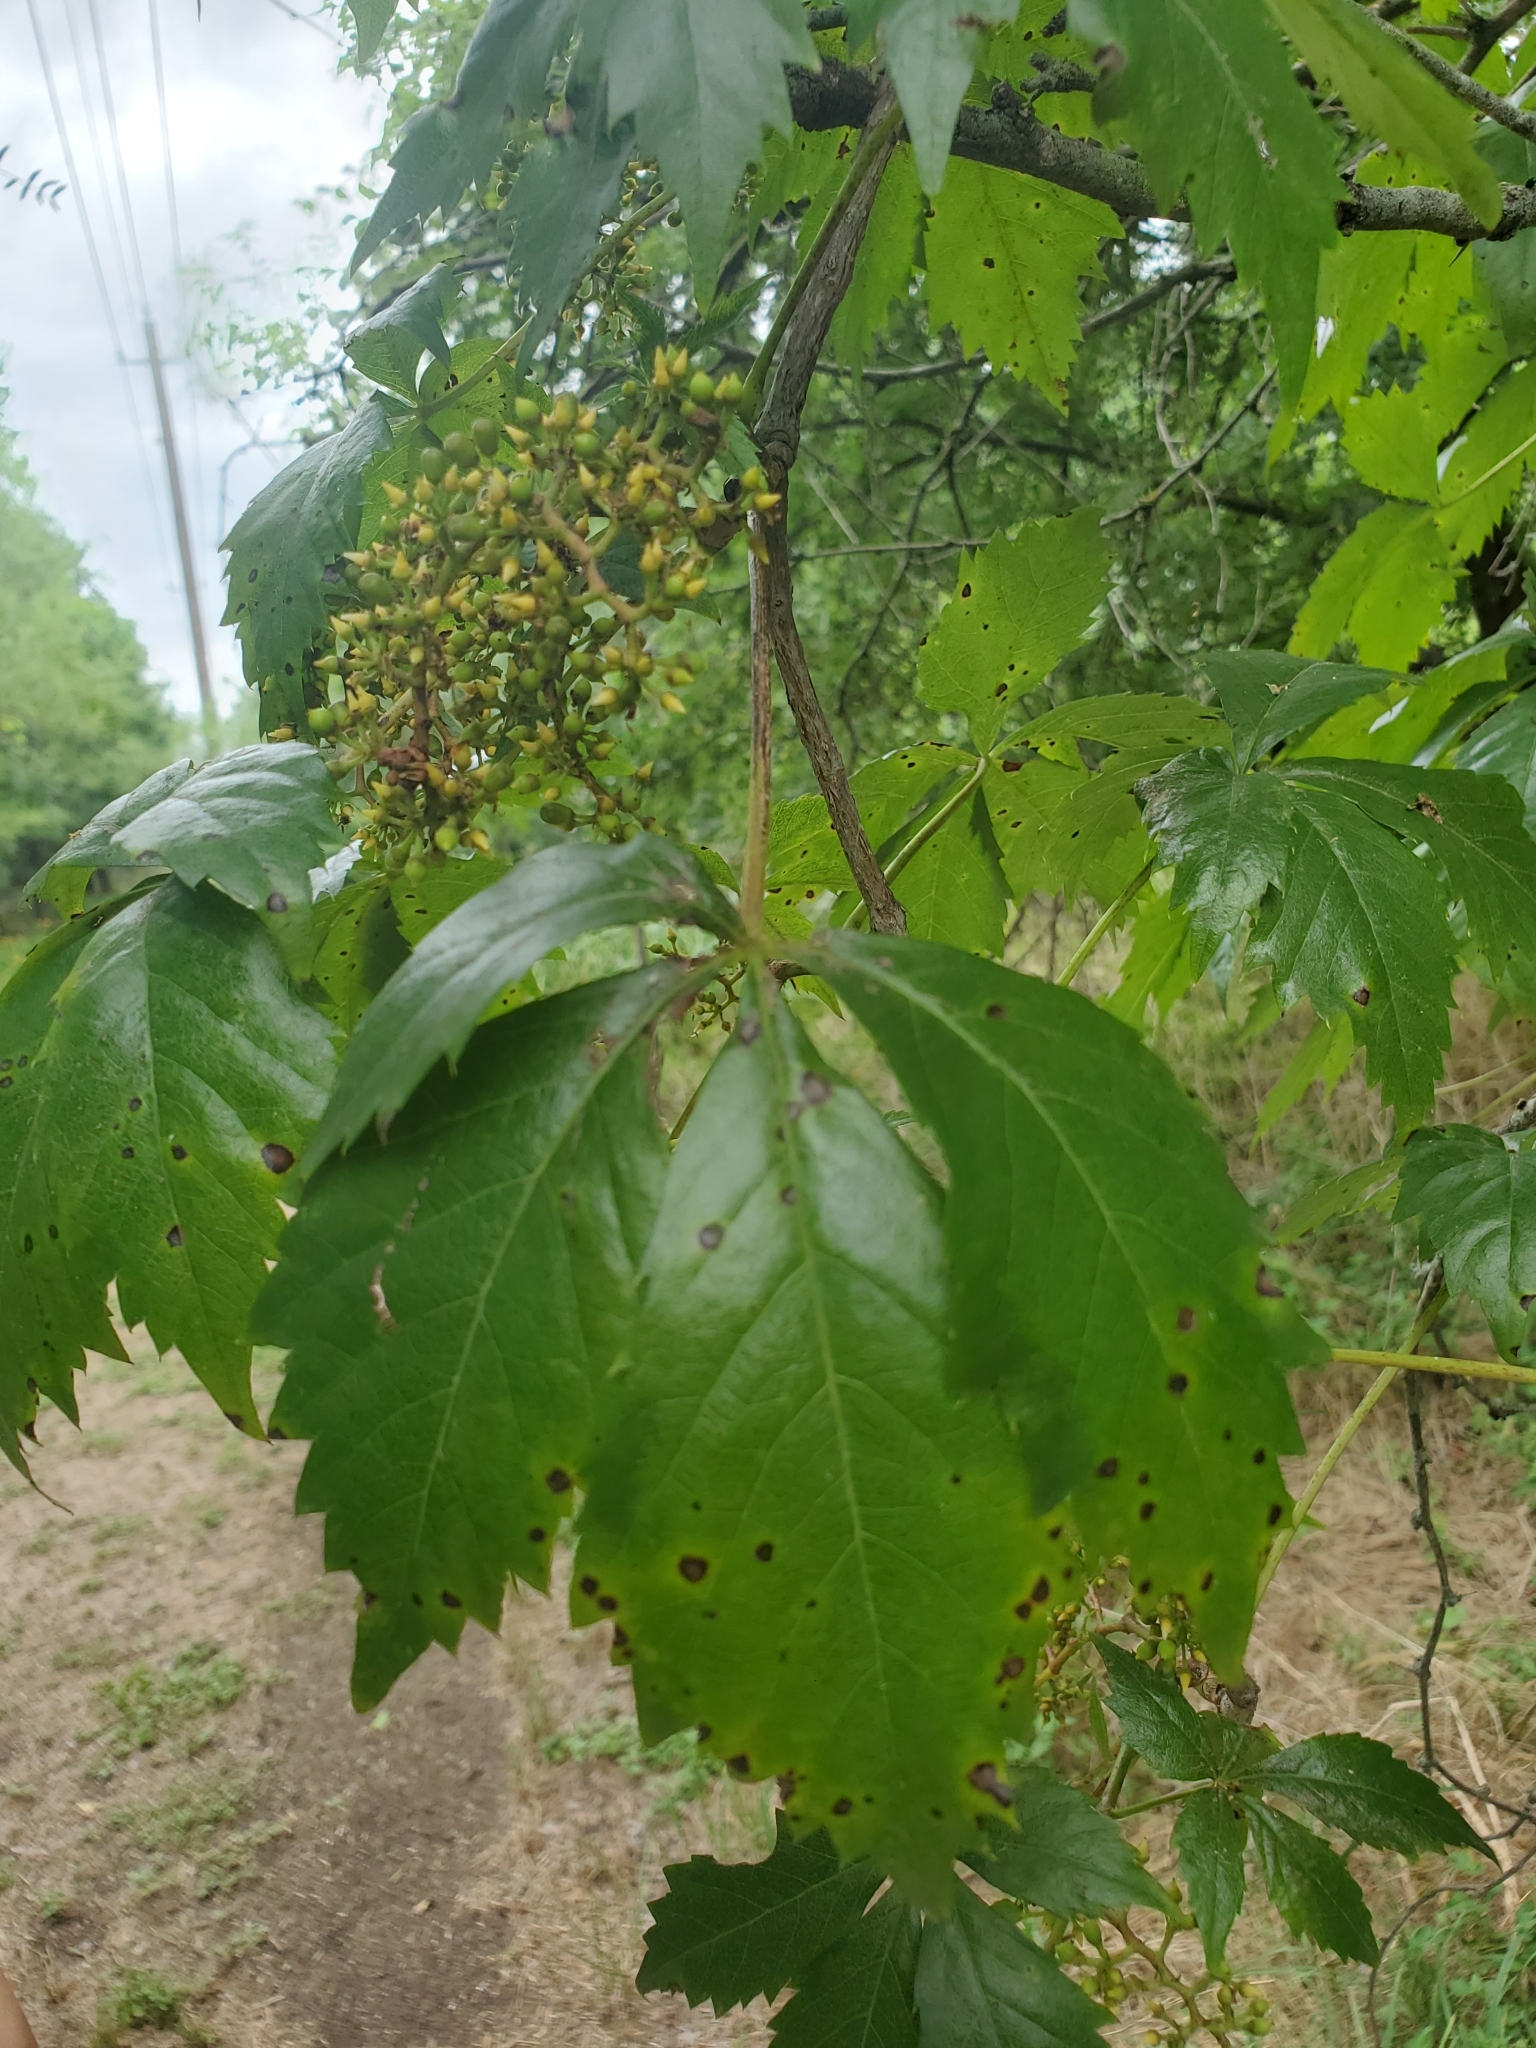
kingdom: Plantae
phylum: Tracheophyta
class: Magnoliopsida
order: Vitales
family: Vitaceae
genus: Parthenocissus
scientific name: Parthenocissus quinquefolia
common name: Virginia-creeper
